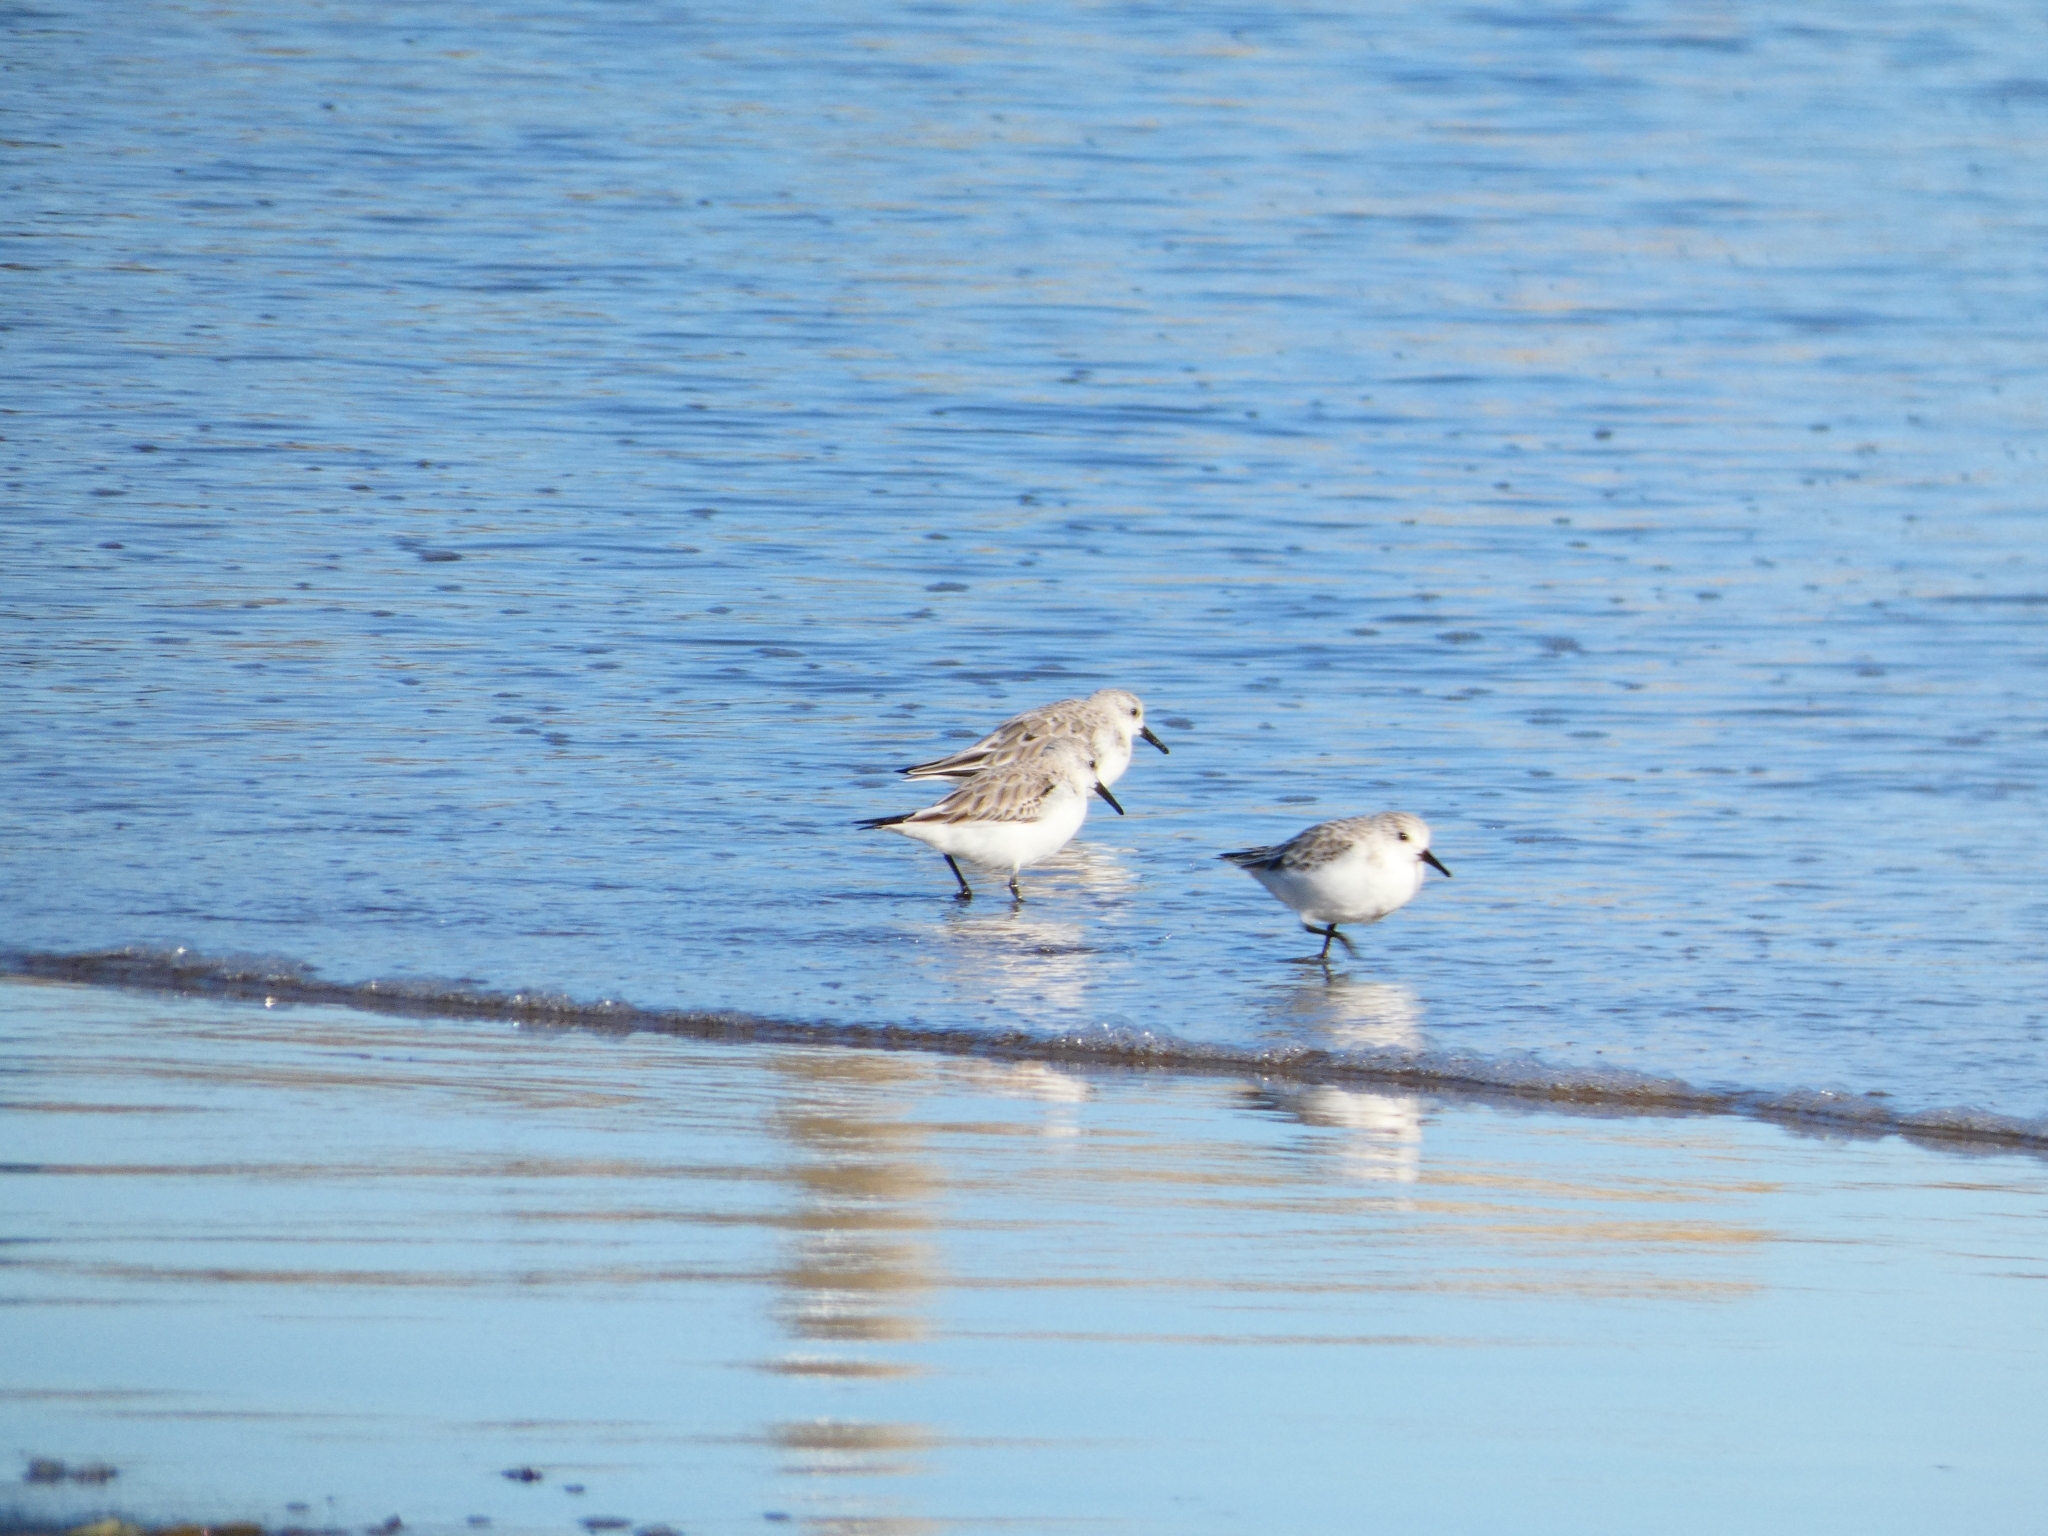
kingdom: Animalia
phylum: Chordata
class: Aves
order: Charadriiformes
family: Scolopacidae
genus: Calidris
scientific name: Calidris alba
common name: Sanderling
